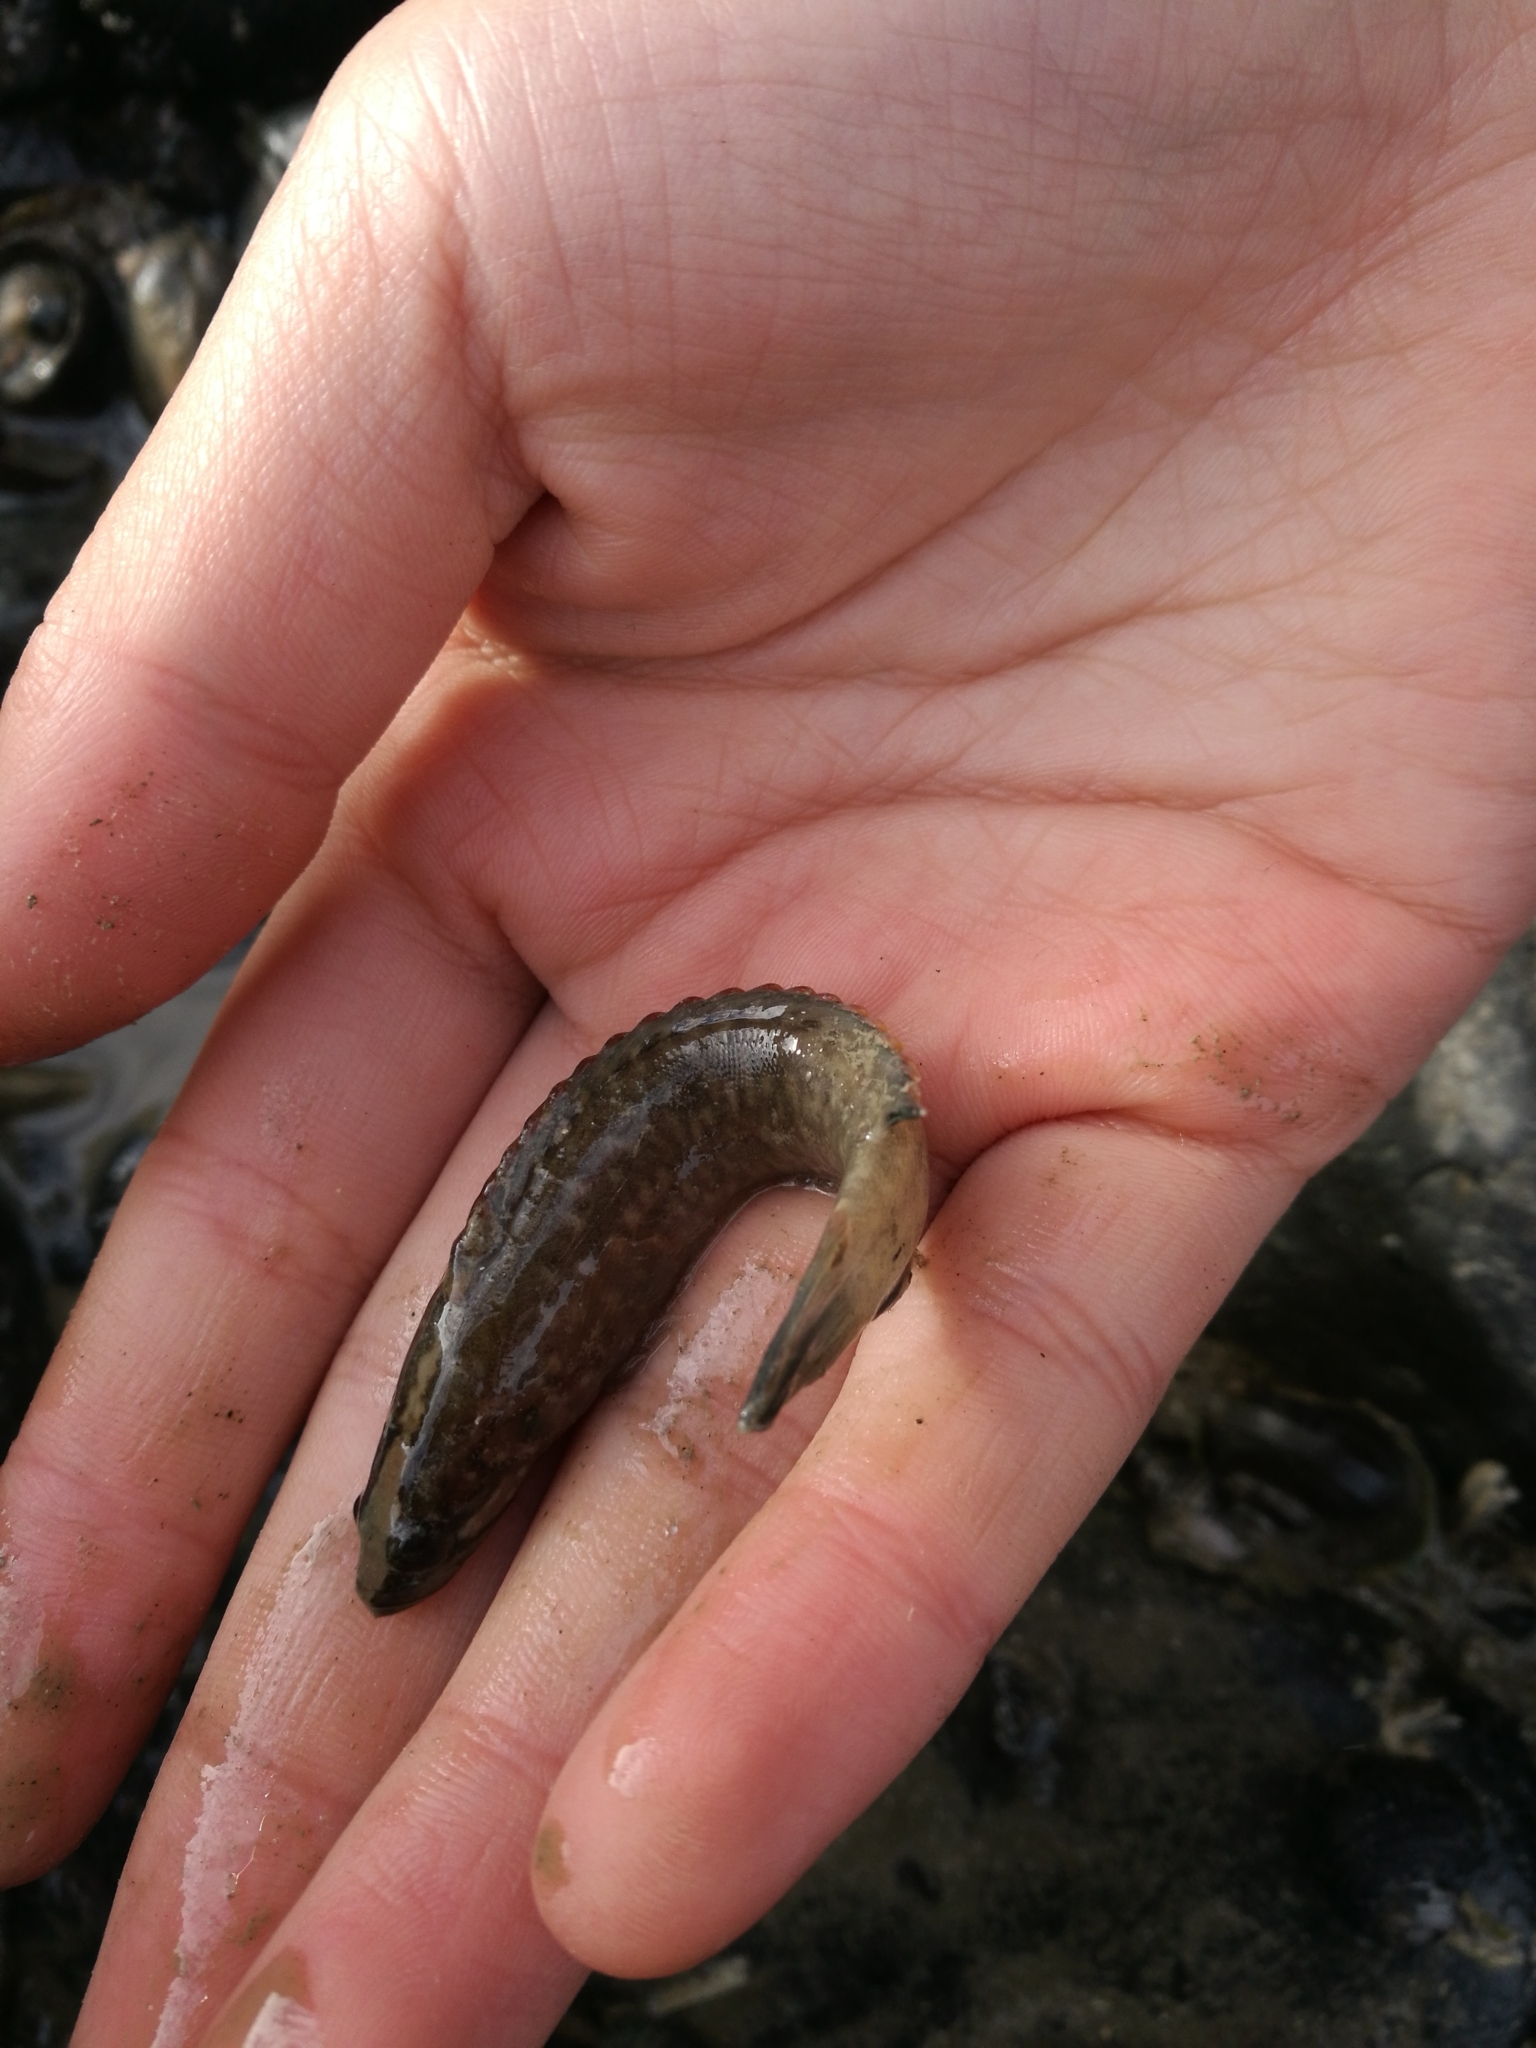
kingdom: Animalia
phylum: Chordata
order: Perciformes
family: Plesiopidae
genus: Acanthoclinus
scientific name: Acanthoclinus fuscus
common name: Olive rockfish
